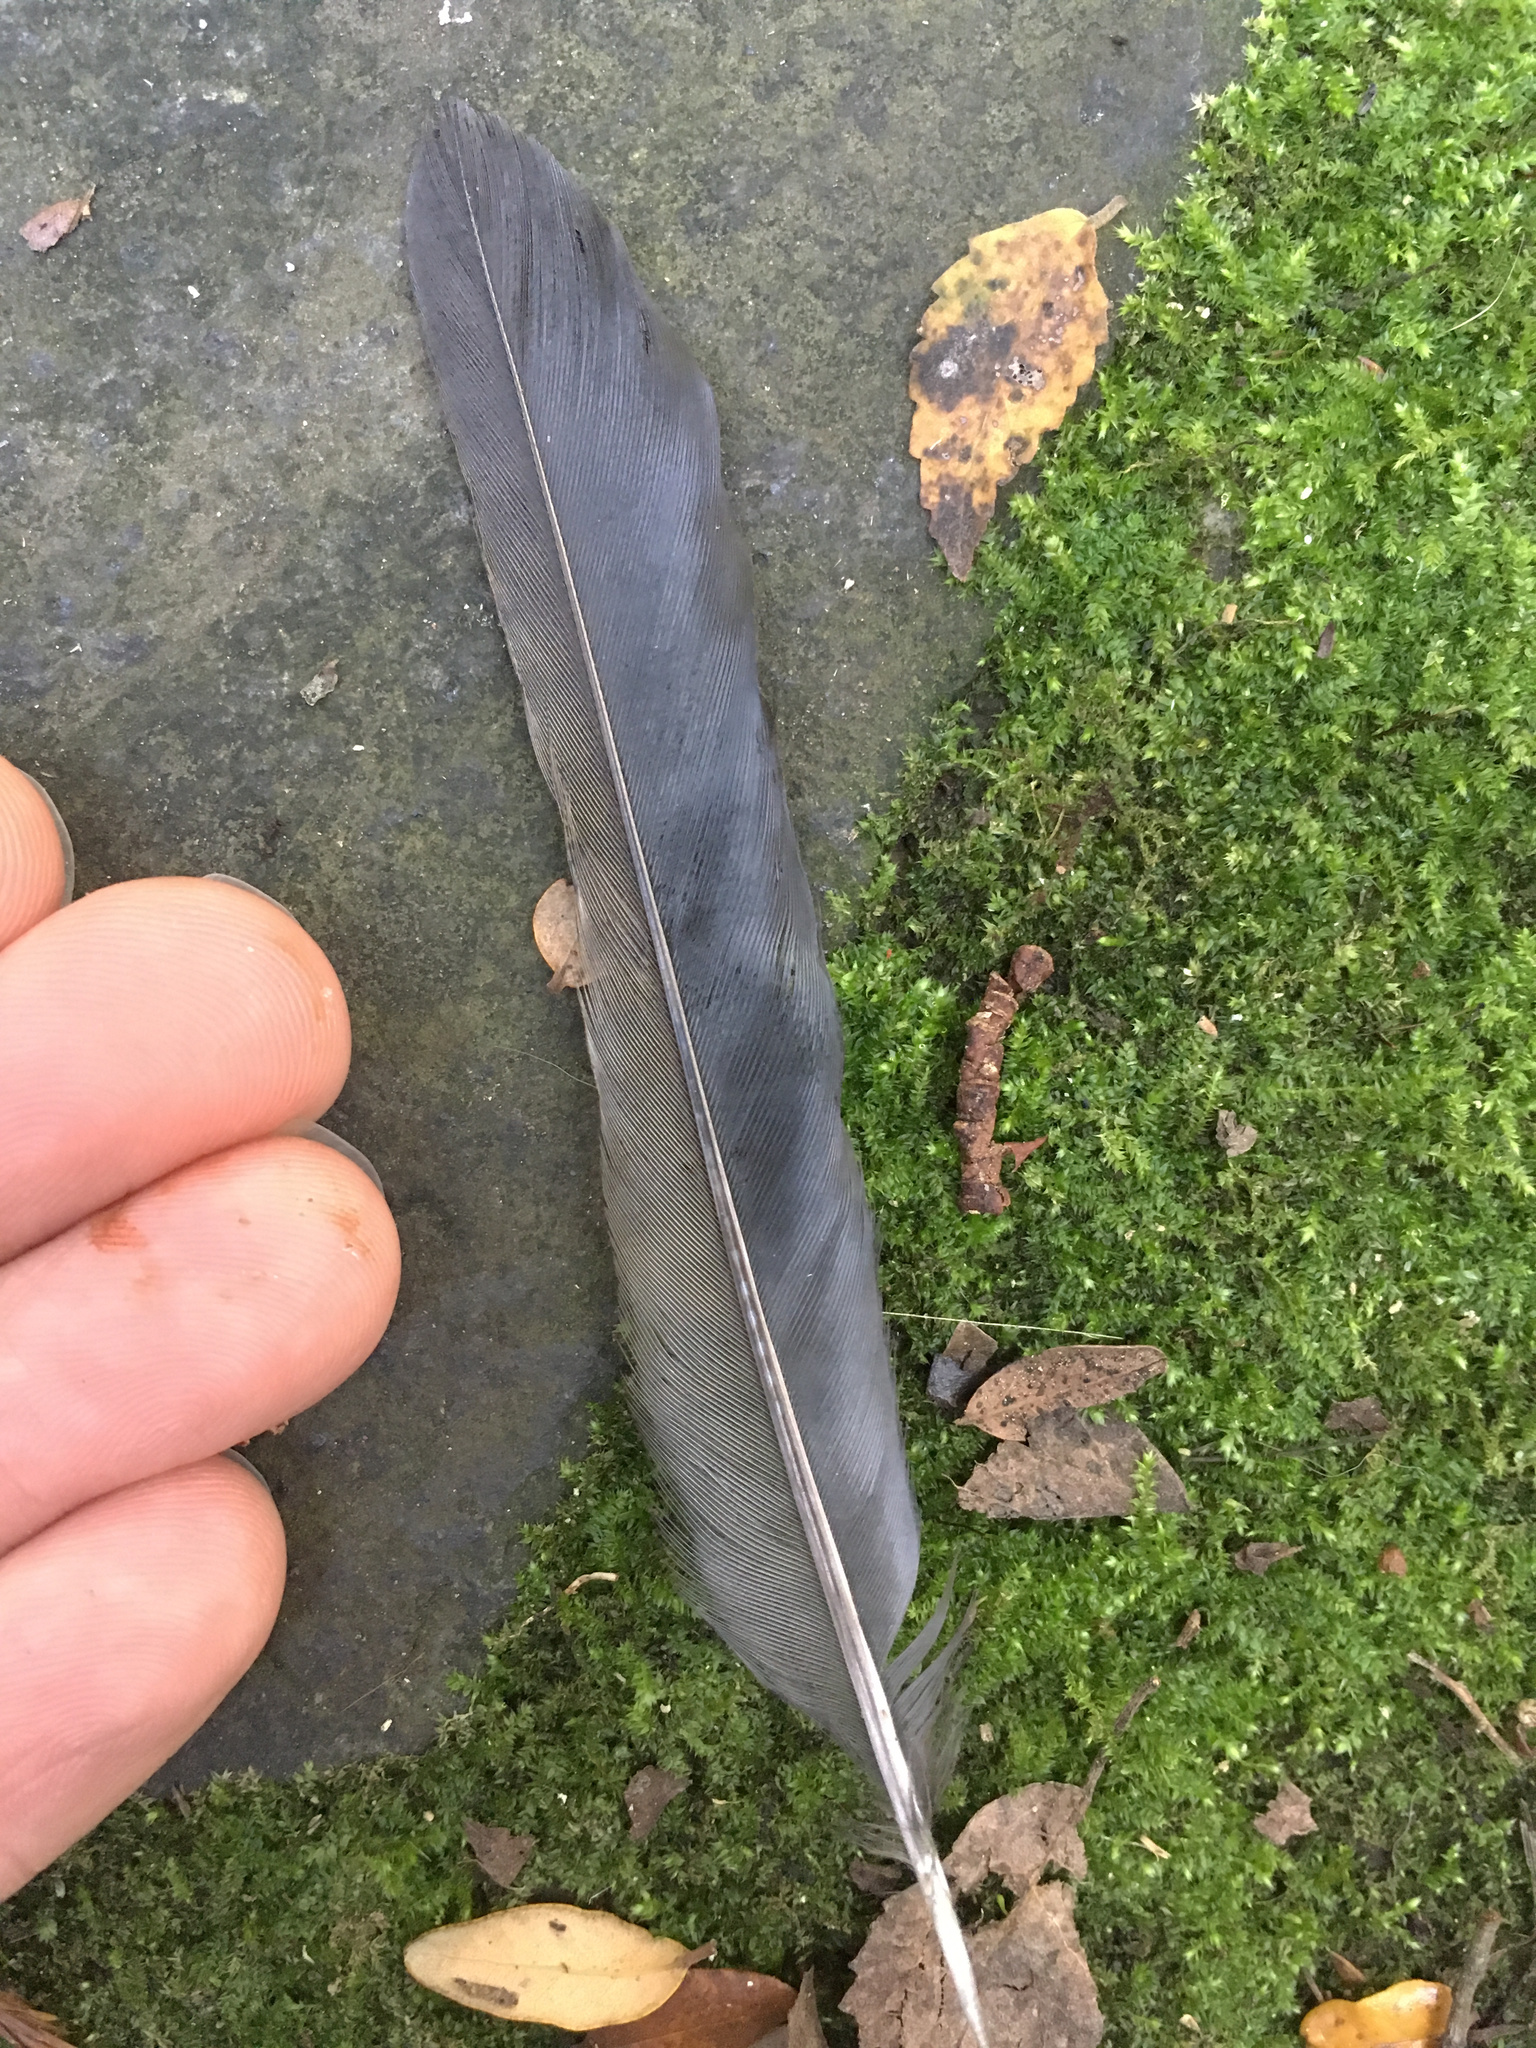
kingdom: Animalia
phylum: Chordata
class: Aves
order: Passeriformes
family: Turdidae
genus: Turdus
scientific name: Turdus merula
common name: Common blackbird
